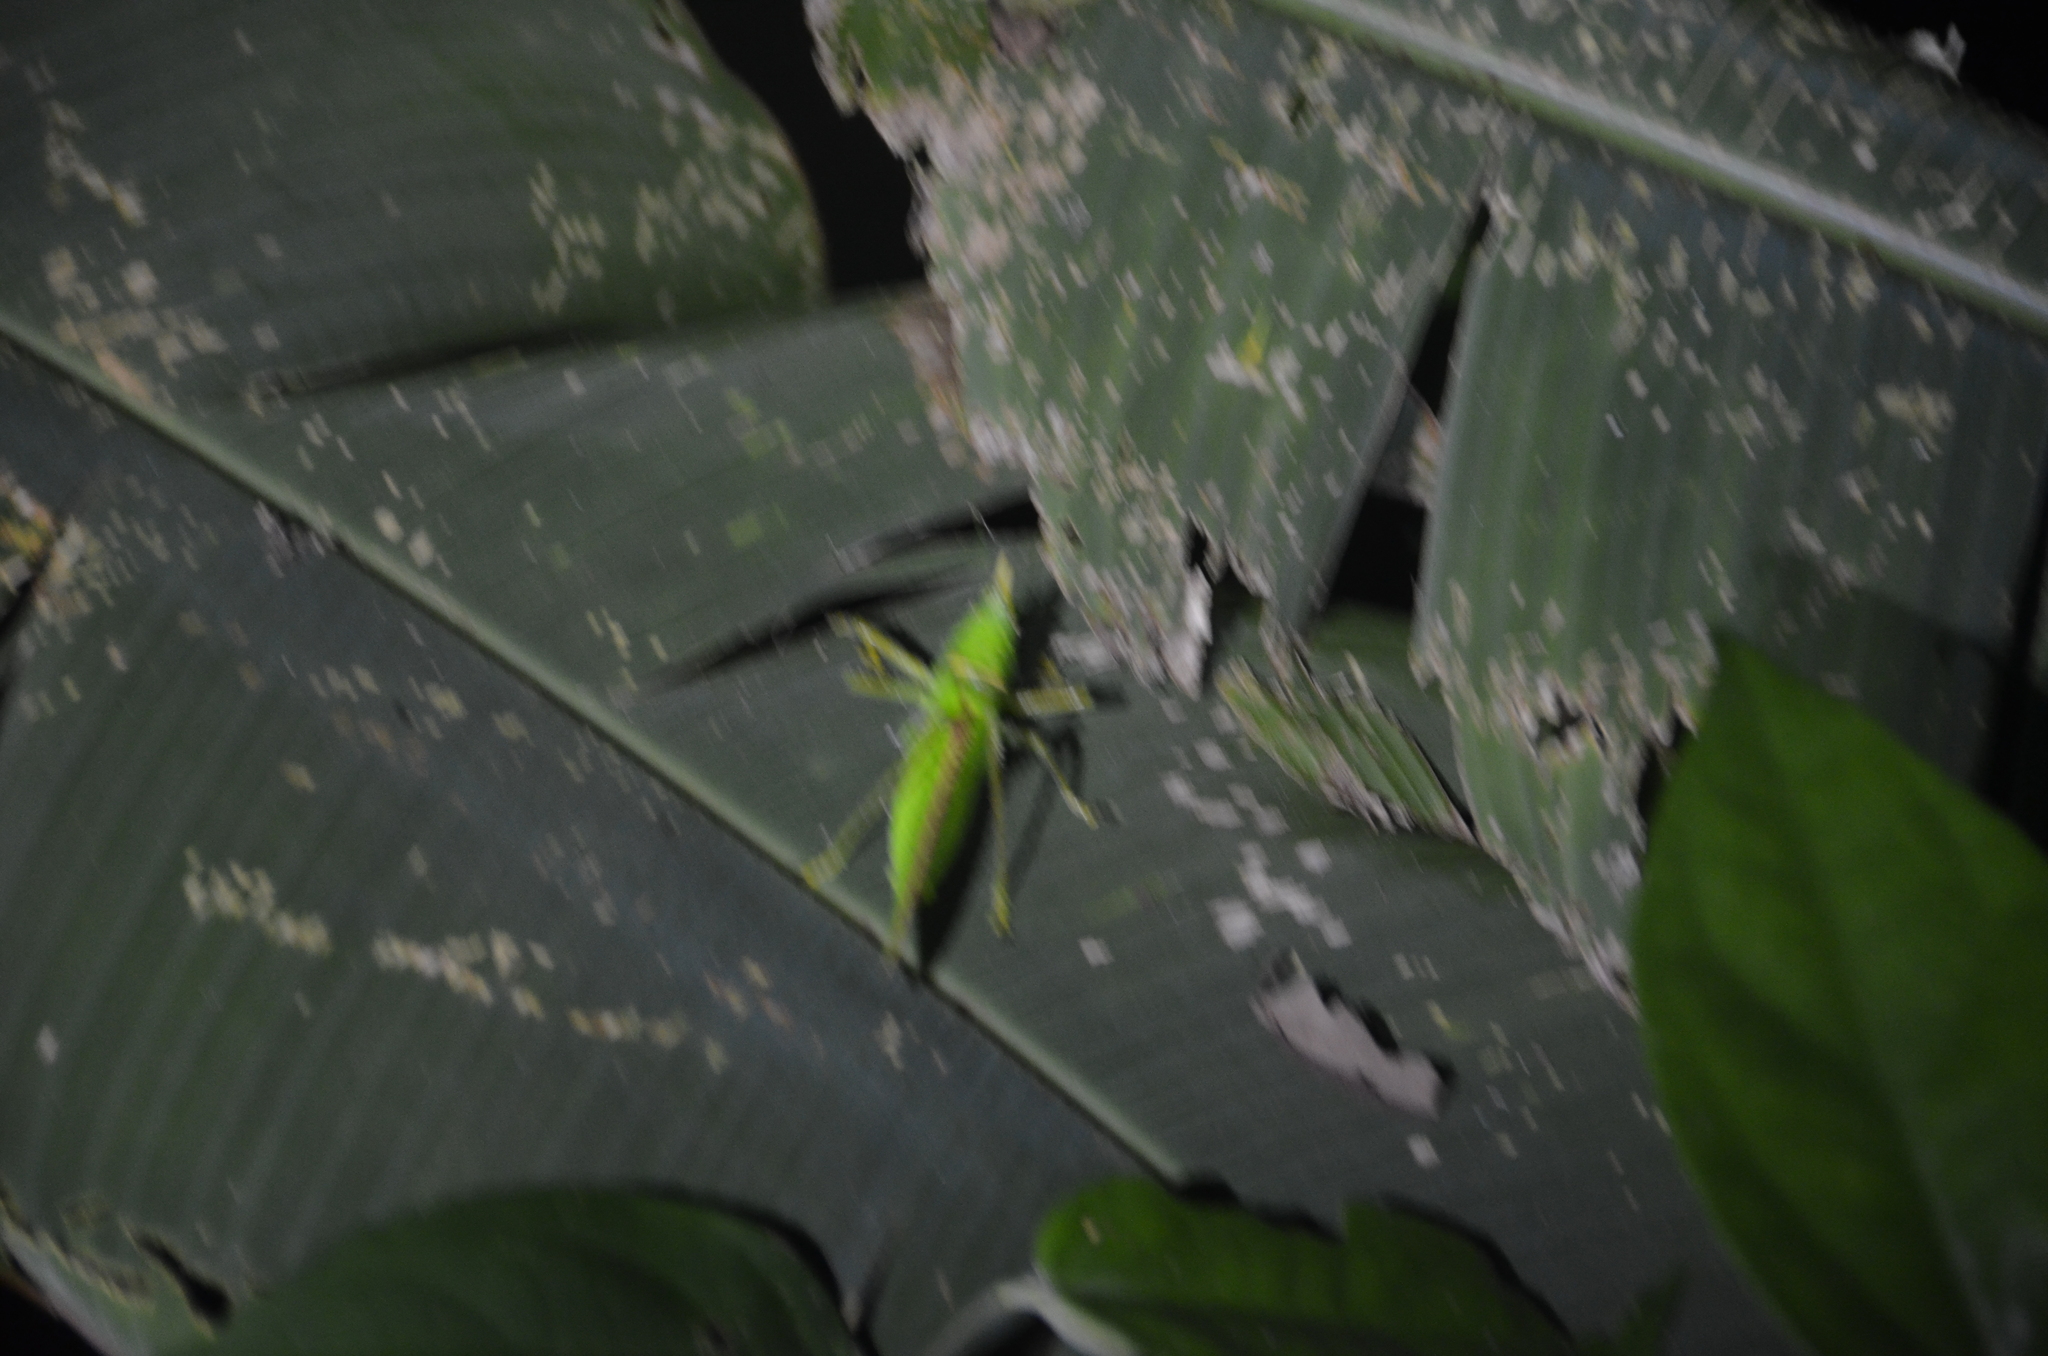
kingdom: Animalia
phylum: Arthropoda
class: Insecta
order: Orthoptera
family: Tettigoniidae
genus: Copiphora
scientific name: Copiphora rhinoceros
